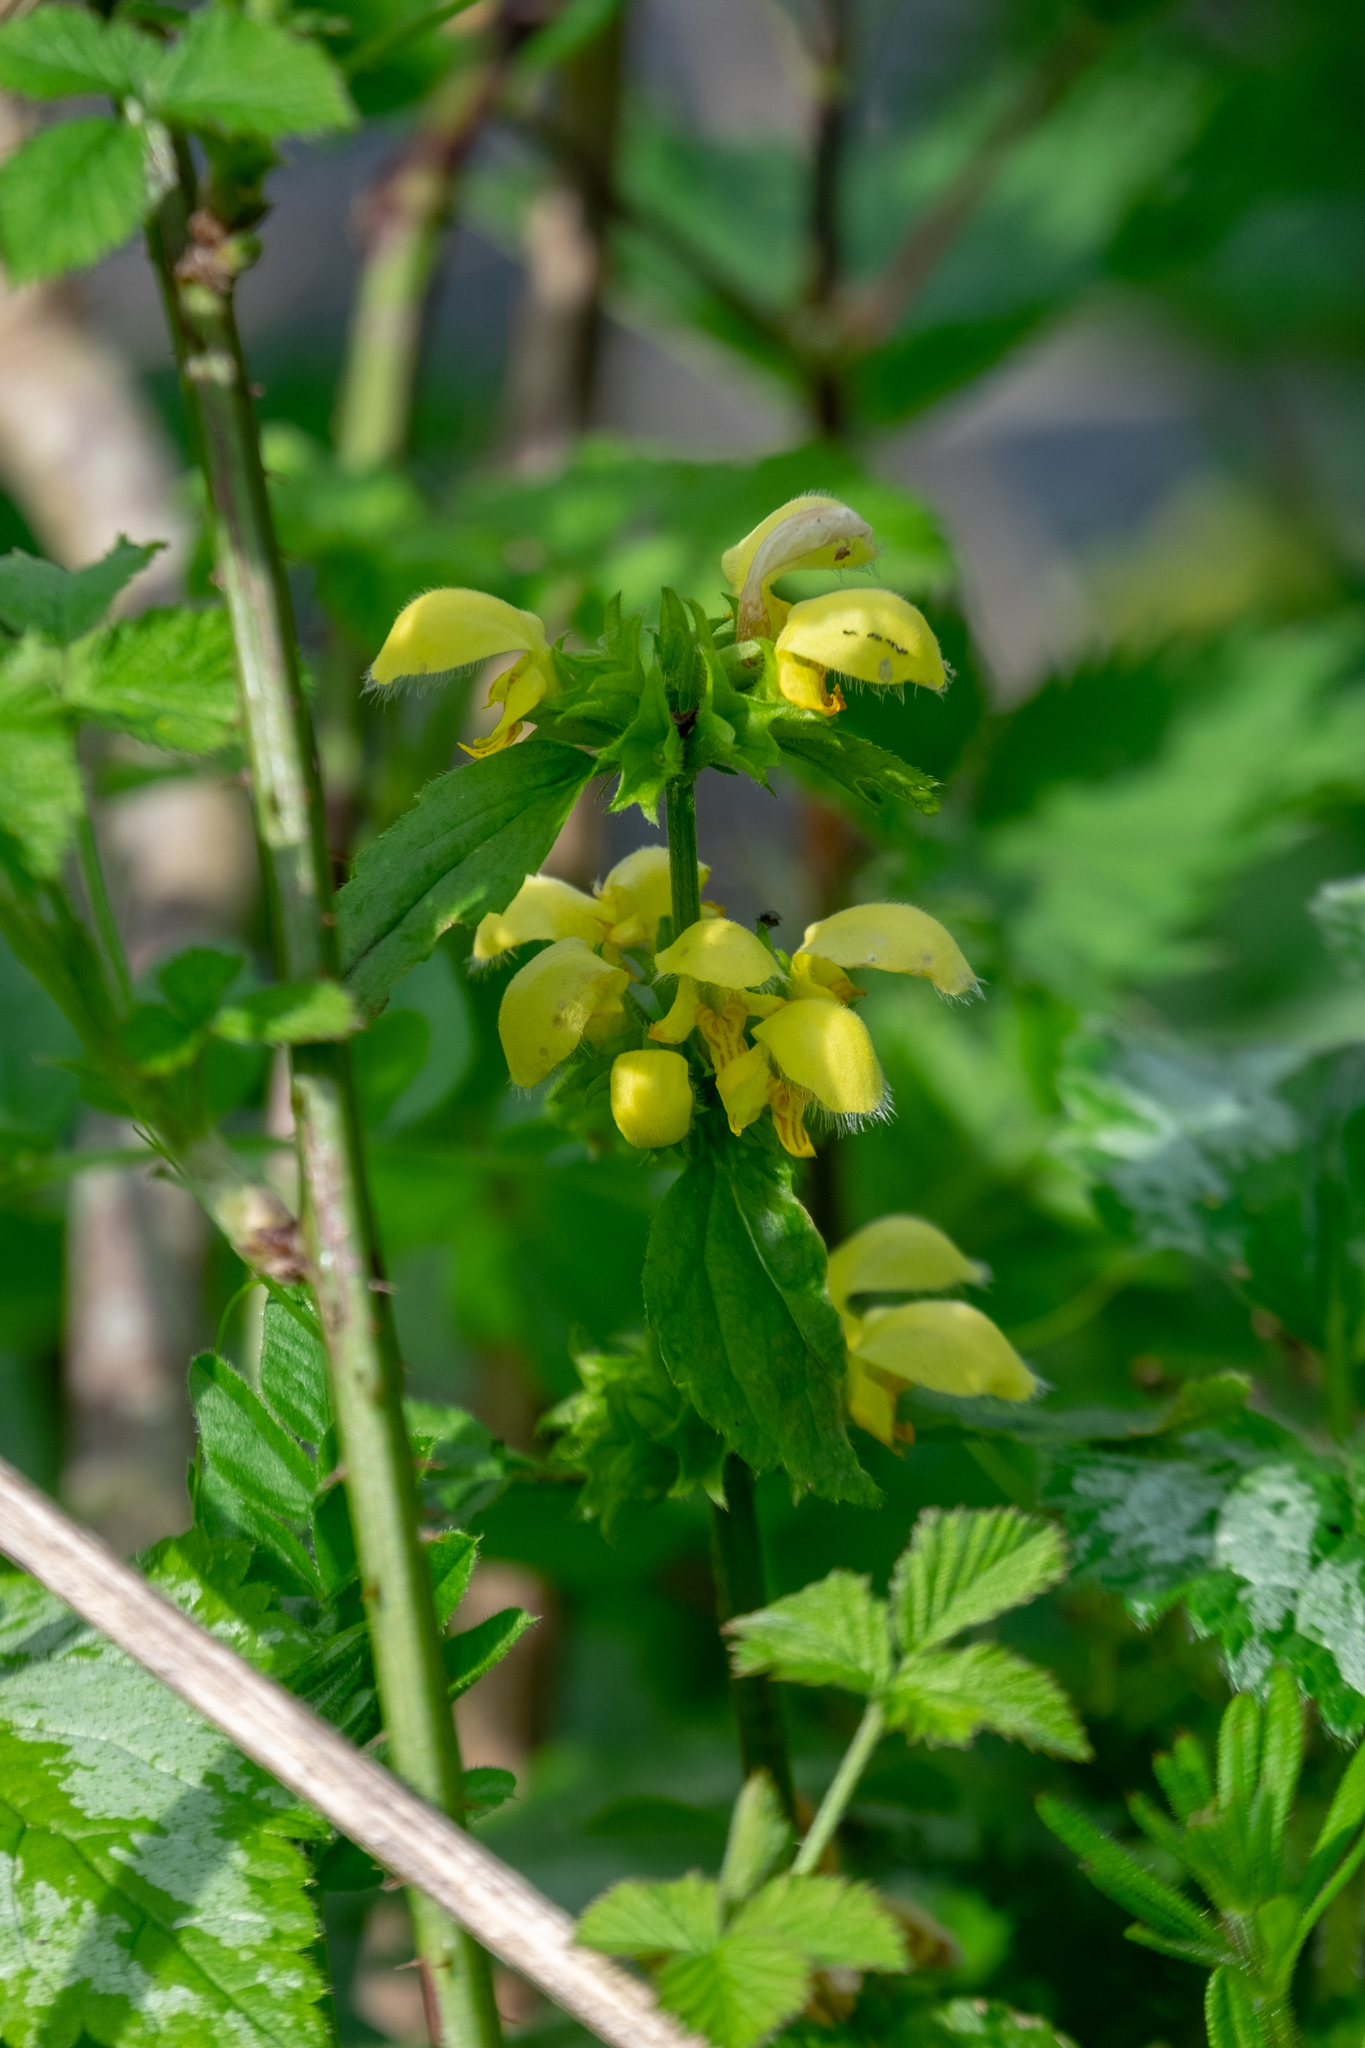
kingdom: Plantae
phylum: Tracheophyta
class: Magnoliopsida
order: Lamiales
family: Lamiaceae
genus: Lamium
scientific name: Lamium galeobdolon
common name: Yellow archangel
